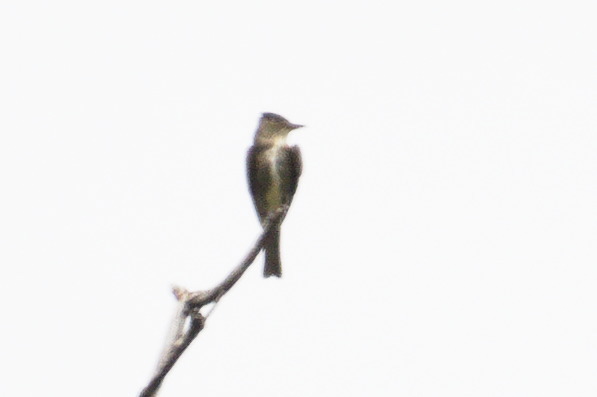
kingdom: Animalia
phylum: Chordata
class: Aves
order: Passeriformes
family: Tyrannidae
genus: Contopus
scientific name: Contopus cooperi
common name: Olive-sided flycatcher
